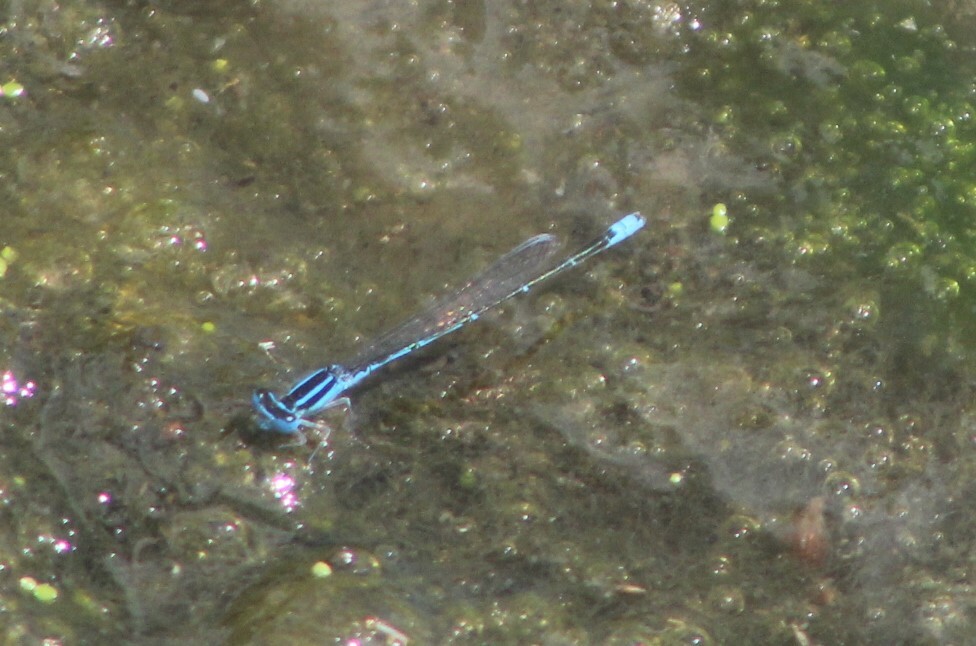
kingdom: Animalia
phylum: Arthropoda
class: Insecta
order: Odonata
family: Coenagrionidae
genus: Azuragrion
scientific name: Azuragrion nigridorsum
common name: Sailing azuret
